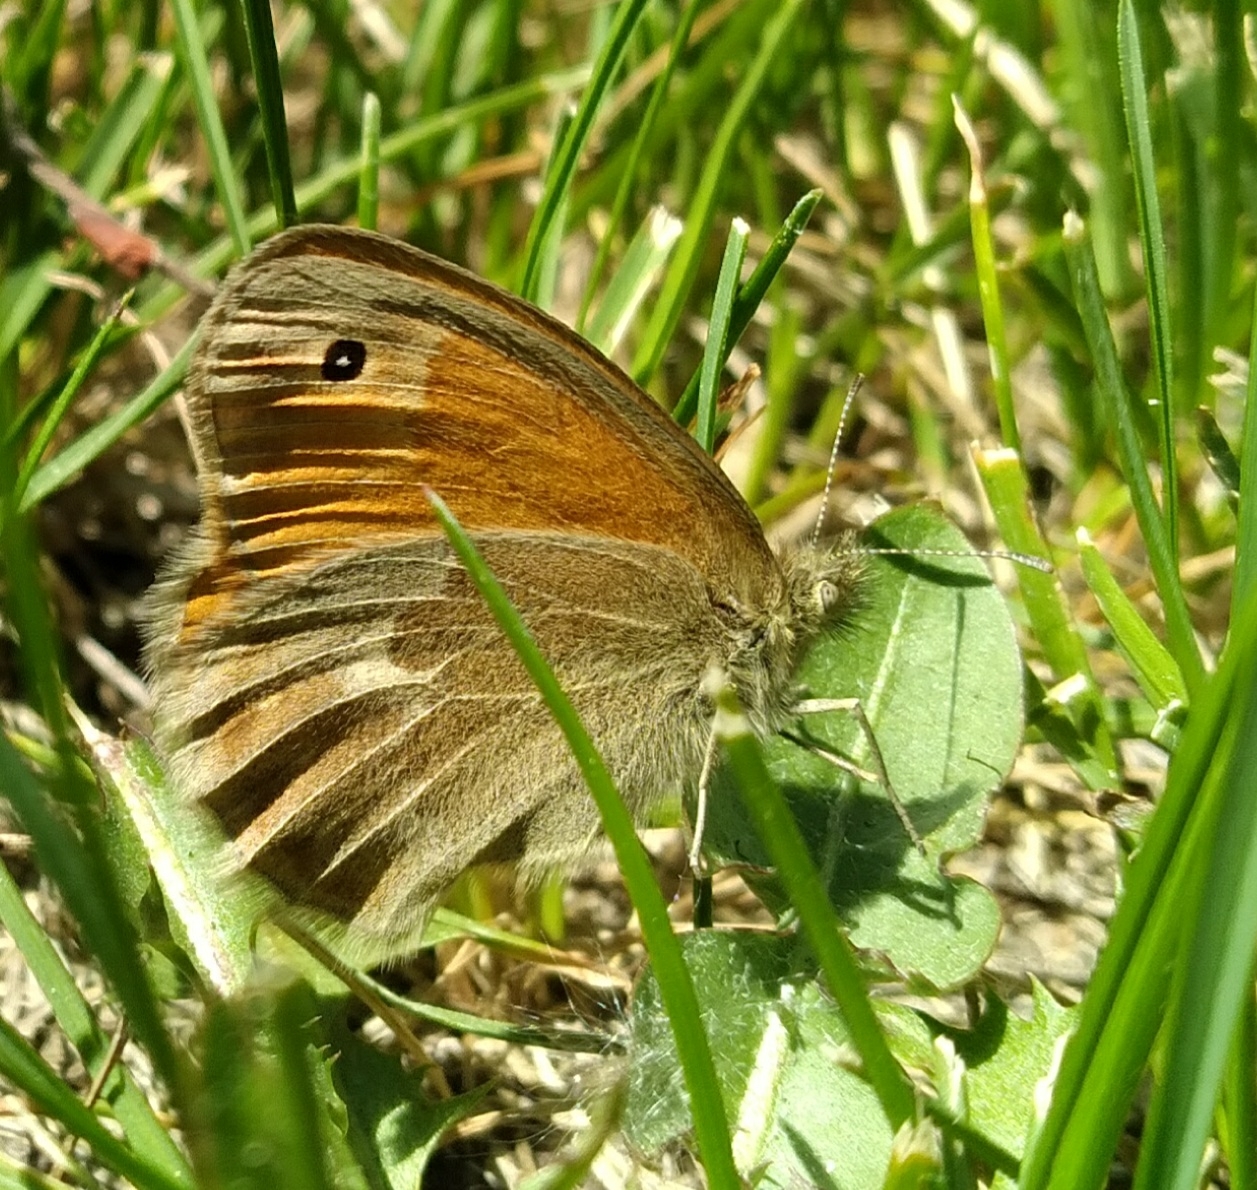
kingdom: Animalia
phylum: Arthropoda
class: Insecta
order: Lepidoptera
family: Nymphalidae
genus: Coenonympha
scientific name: Coenonympha california
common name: Common ringlet
